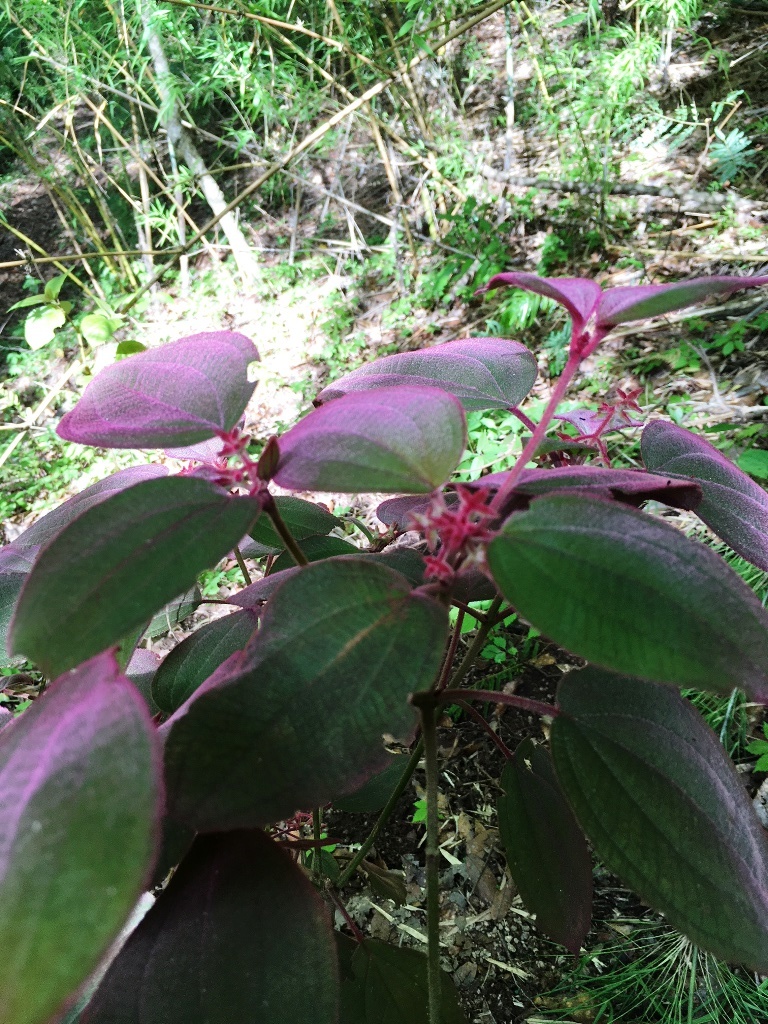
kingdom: Plantae
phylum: Tracheophyta
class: Magnoliopsida
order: Myrtales
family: Melastomataceae
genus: Miconia
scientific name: Miconia submontana
